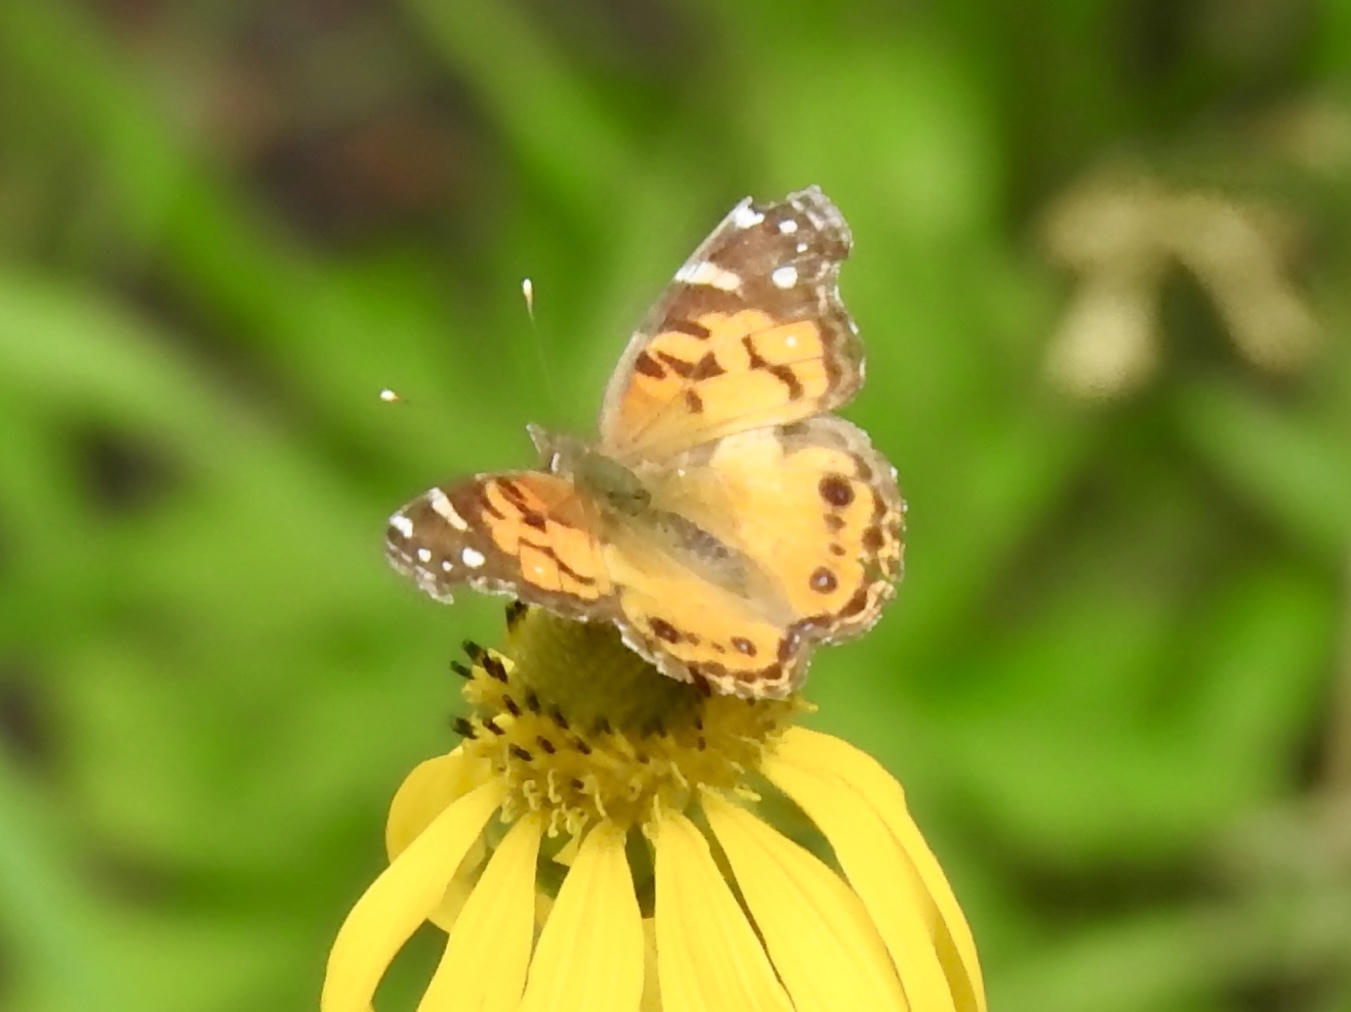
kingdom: Animalia
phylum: Arthropoda
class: Insecta
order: Lepidoptera
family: Nymphalidae
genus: Vanessa
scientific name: Vanessa virginiensis
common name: American lady
